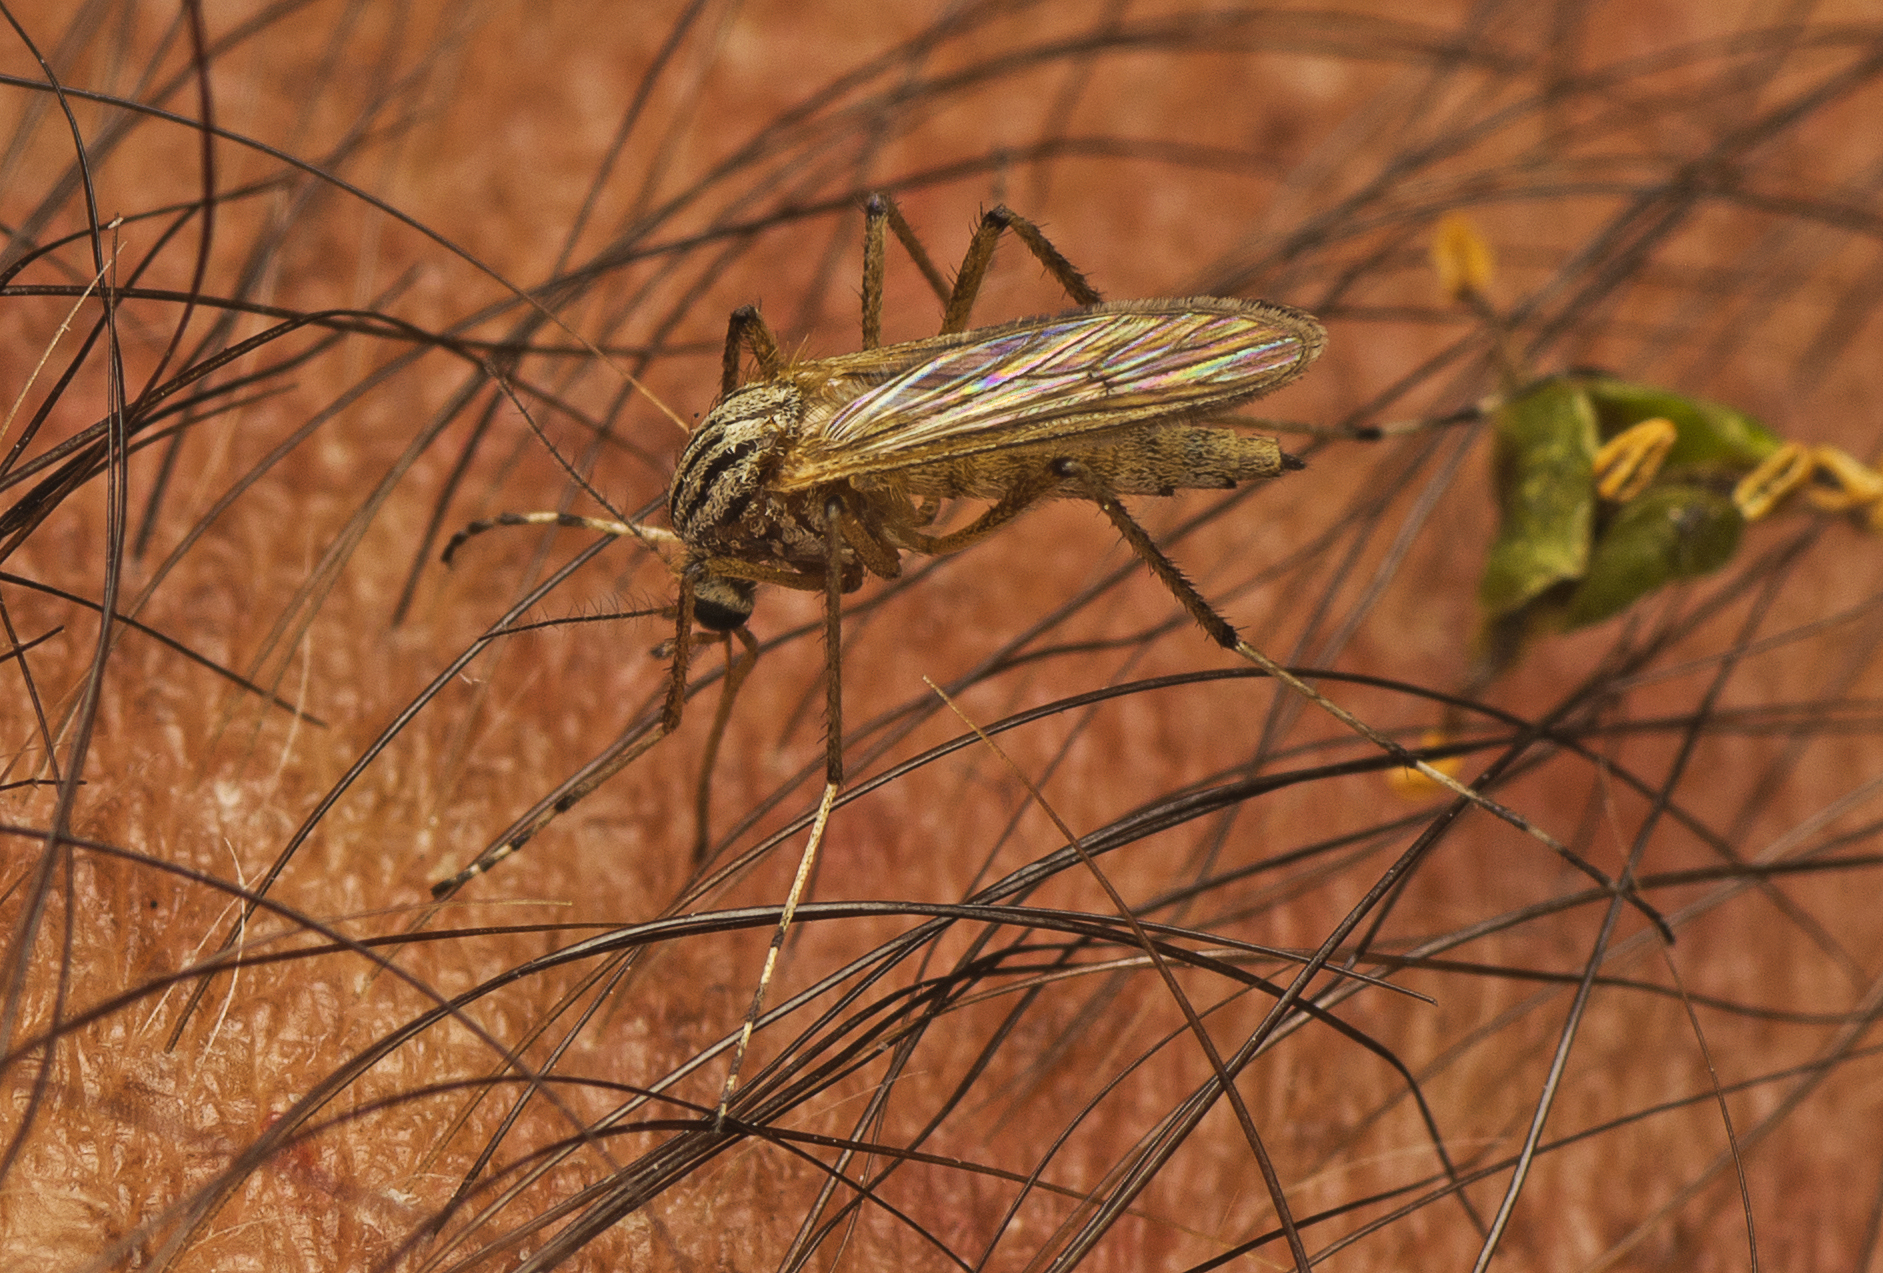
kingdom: Animalia
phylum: Arthropoda
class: Insecta
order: Diptera
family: Culicidae
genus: Aedes
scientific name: Aedes vittiger
